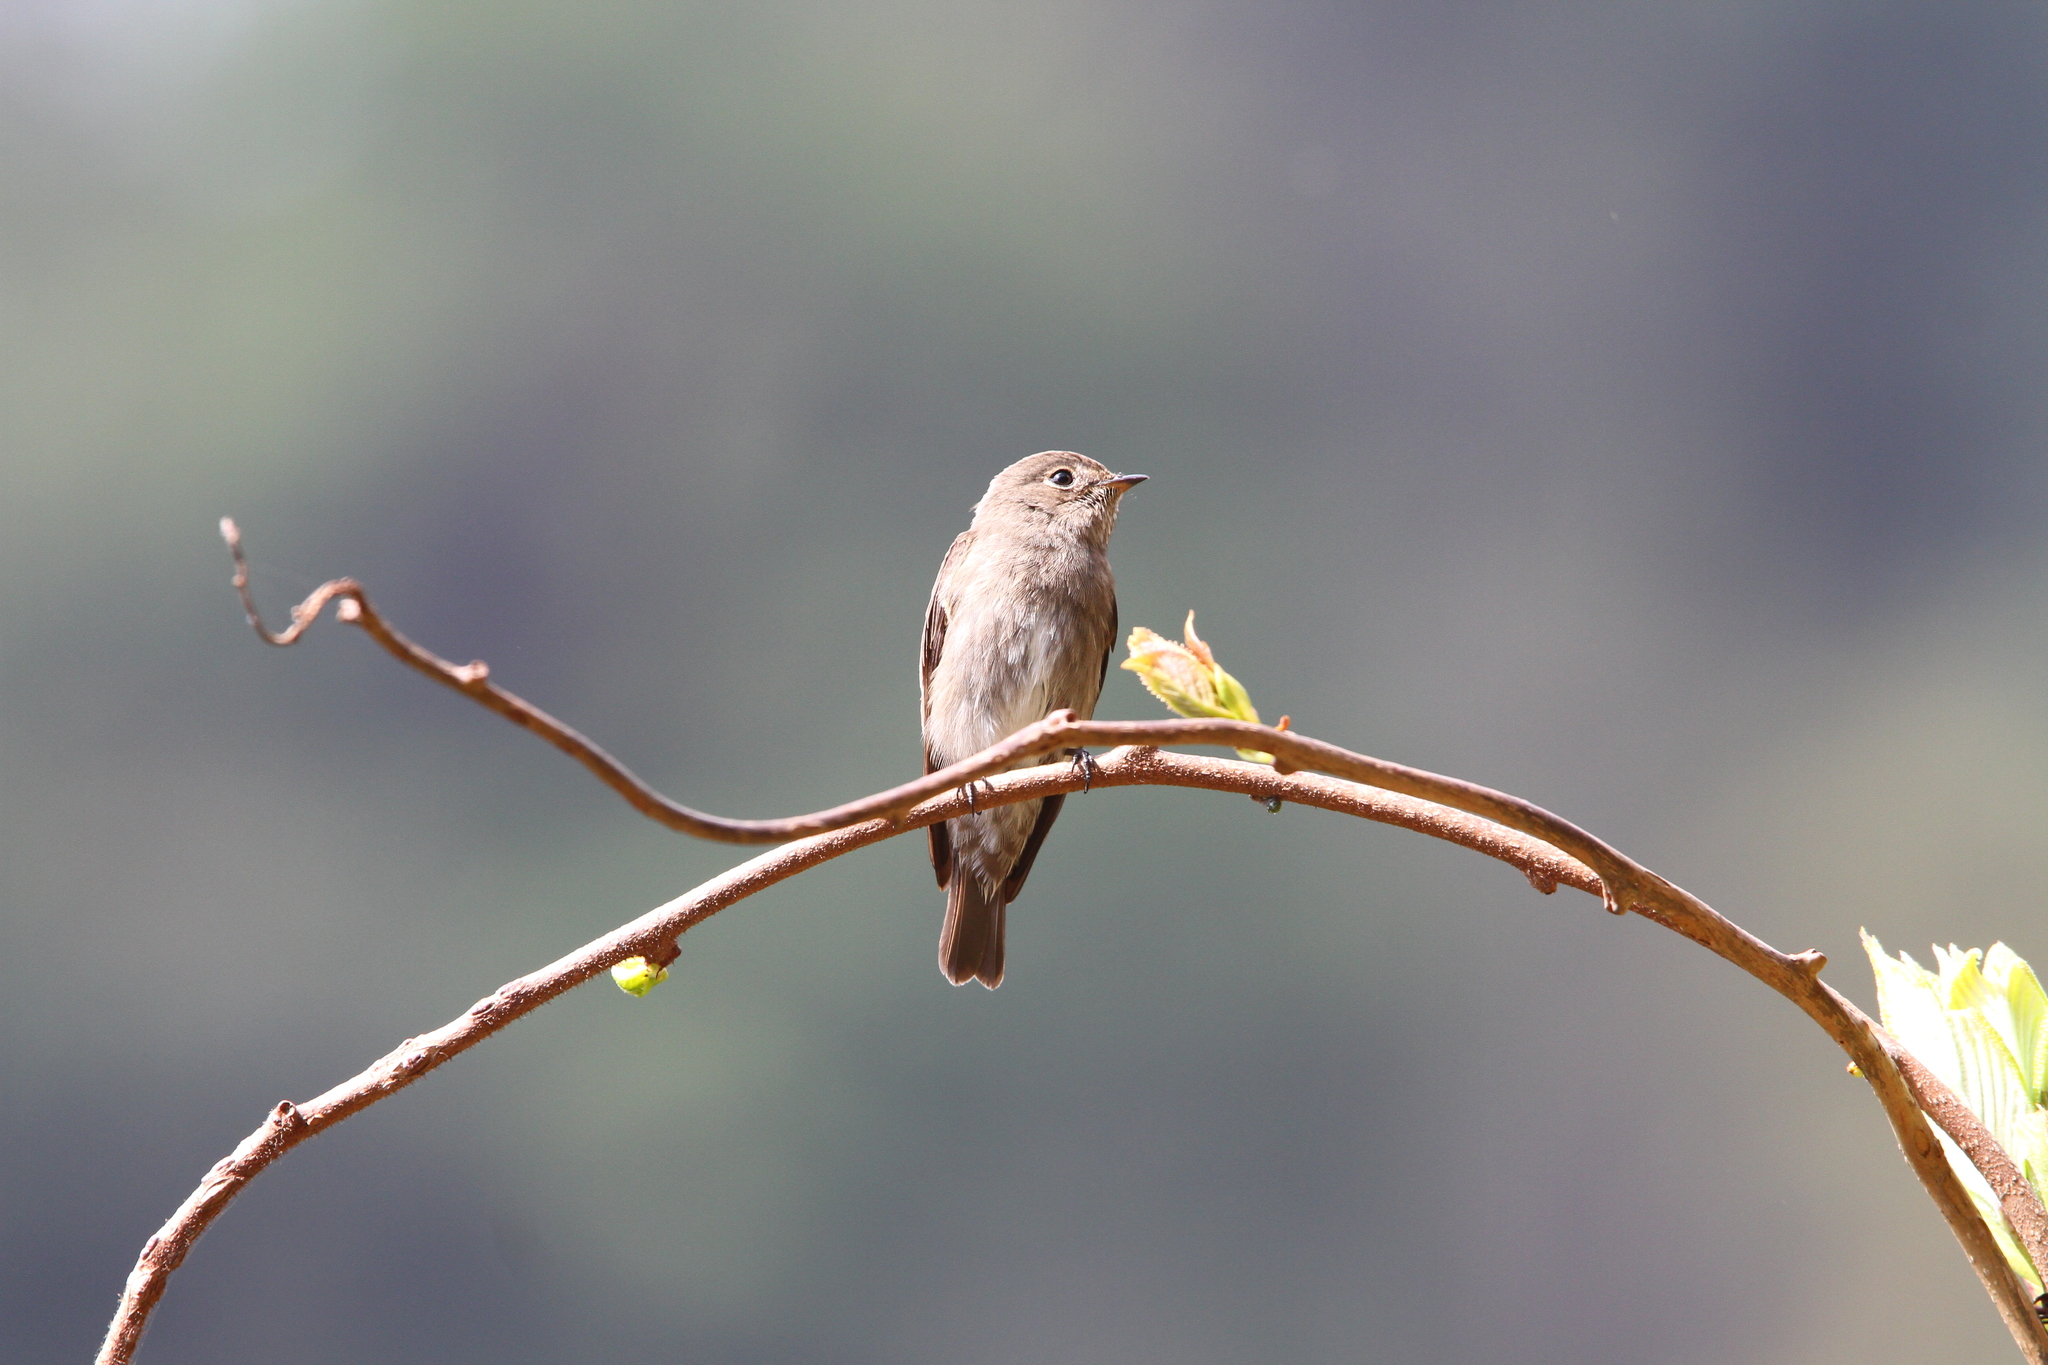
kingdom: Animalia
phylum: Chordata
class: Aves
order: Passeriformes
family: Muscicapidae
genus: Muscicapa
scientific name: Muscicapa sibirica
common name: Dark-sided flycatcher
